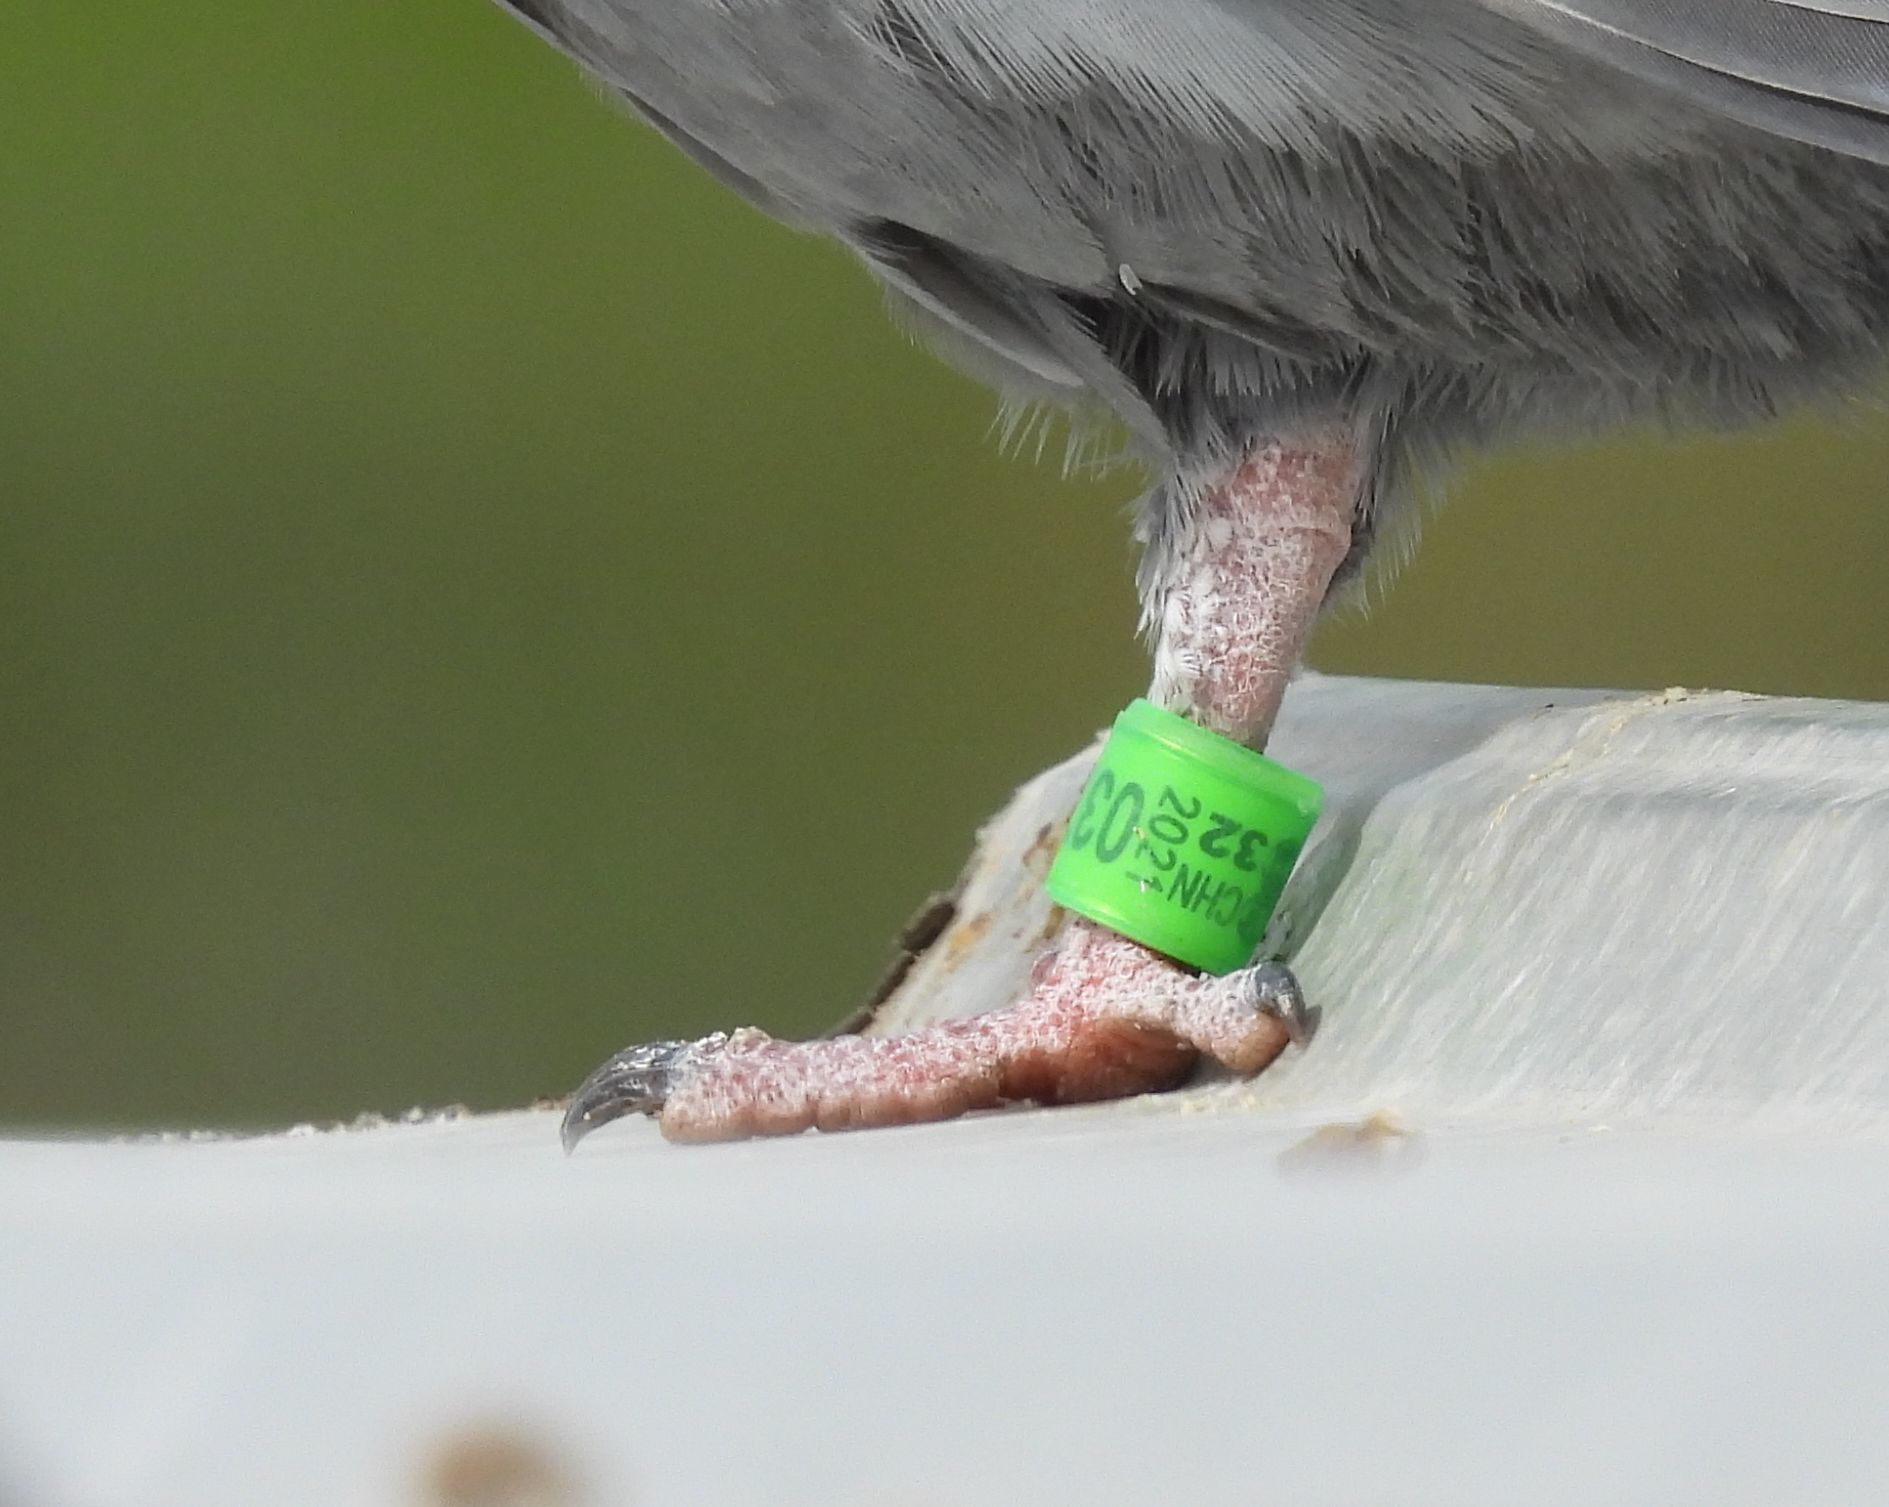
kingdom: Animalia
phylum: Chordata
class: Aves
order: Columbiformes
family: Columbidae
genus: Columba
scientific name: Columba livia
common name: Rock pigeon
